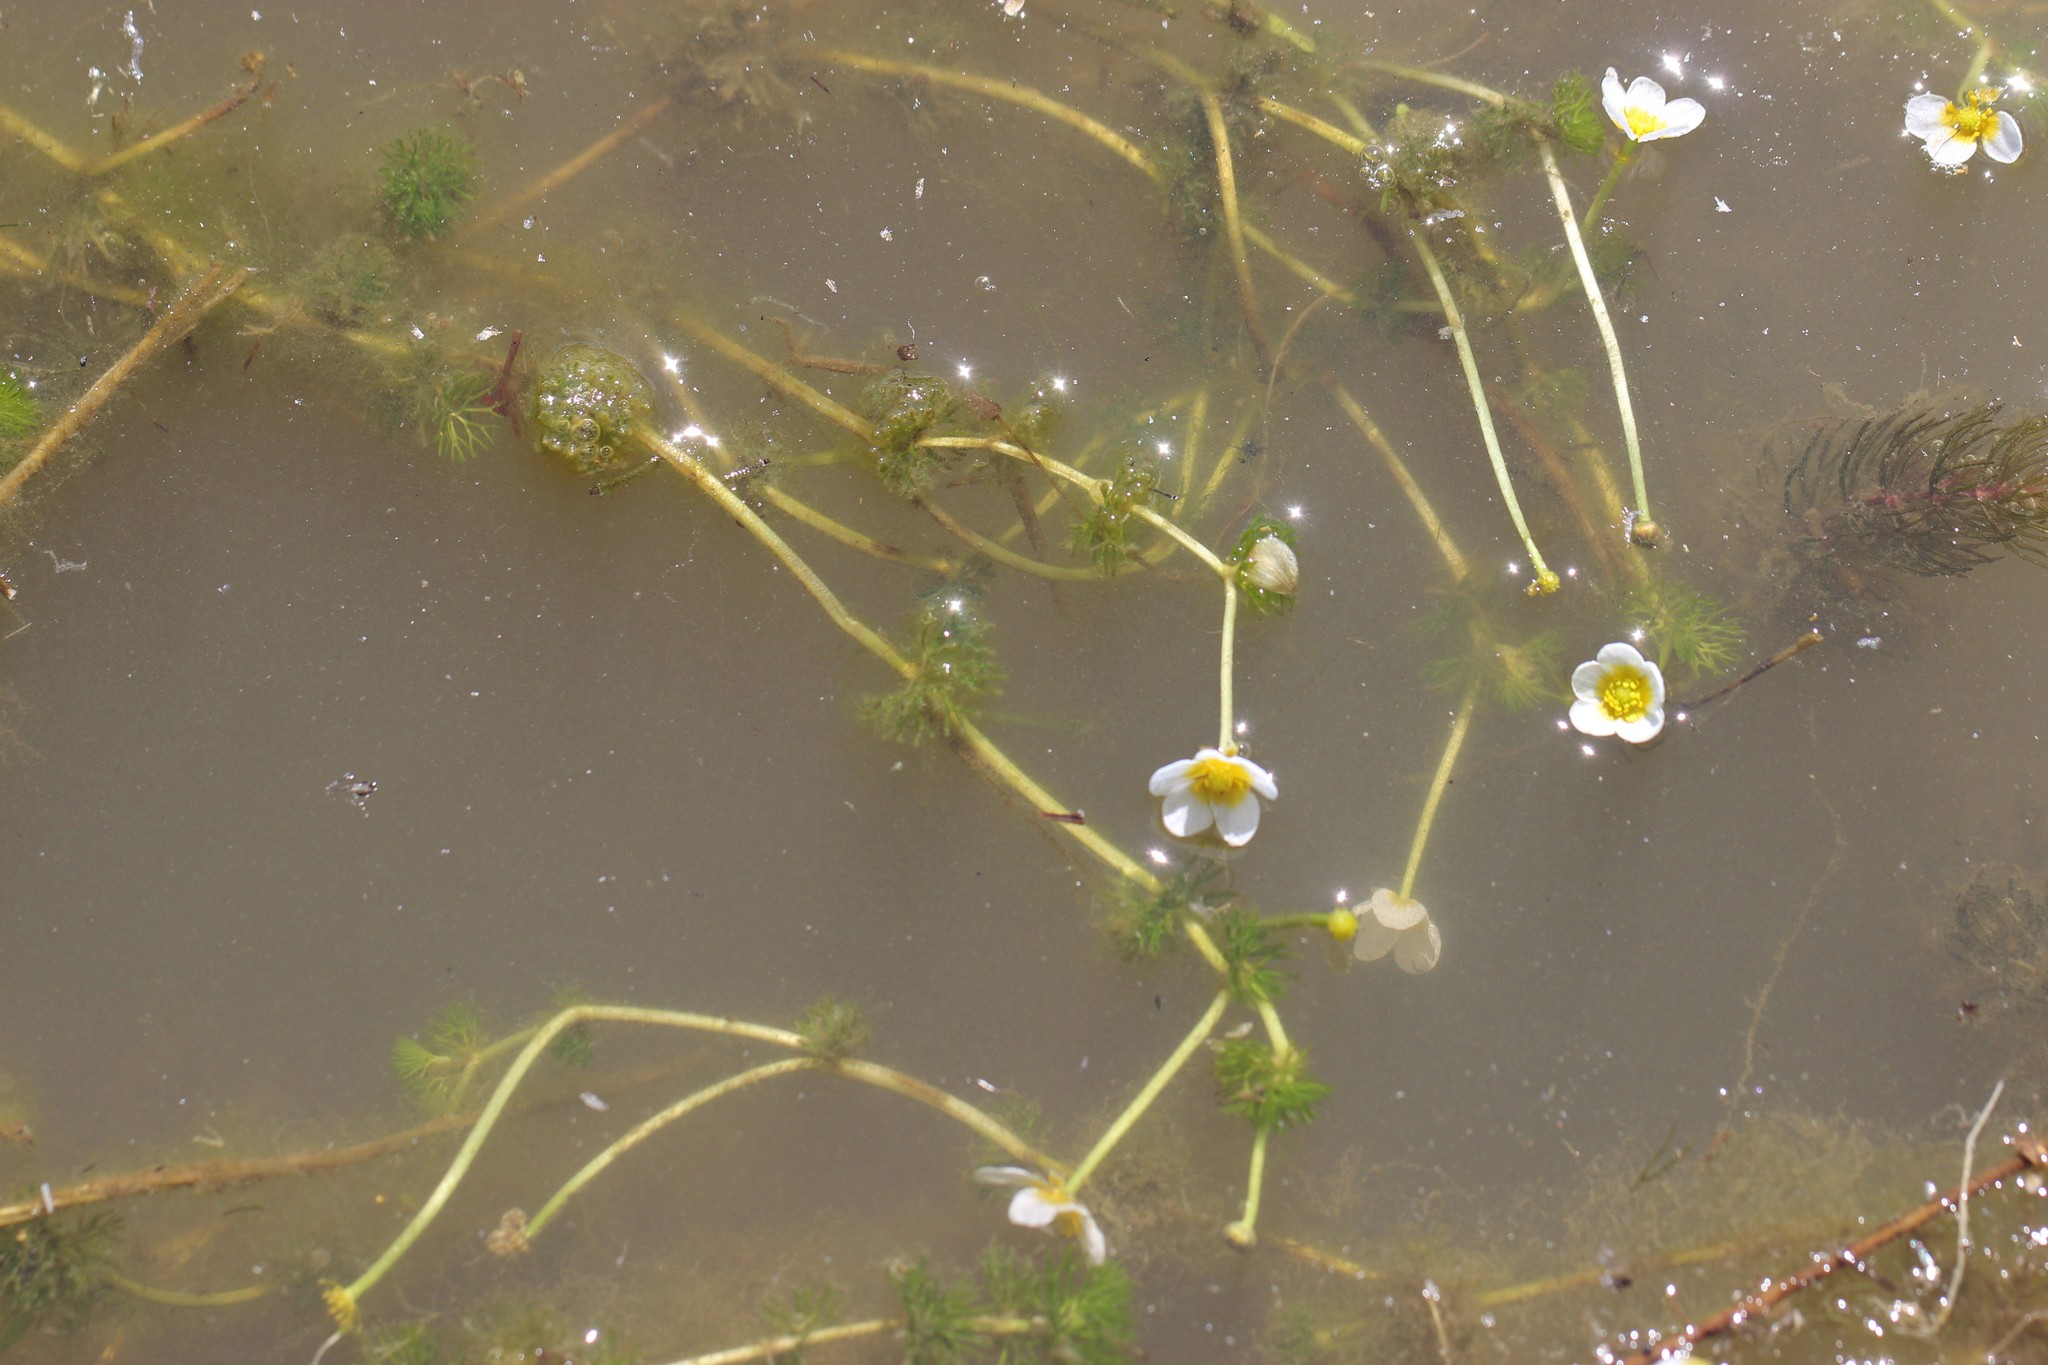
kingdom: Plantae
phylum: Tracheophyta
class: Magnoliopsida
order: Ranunculales
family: Ranunculaceae
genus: Ranunculus
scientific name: Ranunculus circinatus
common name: Fan-leaved water-crowfoot
